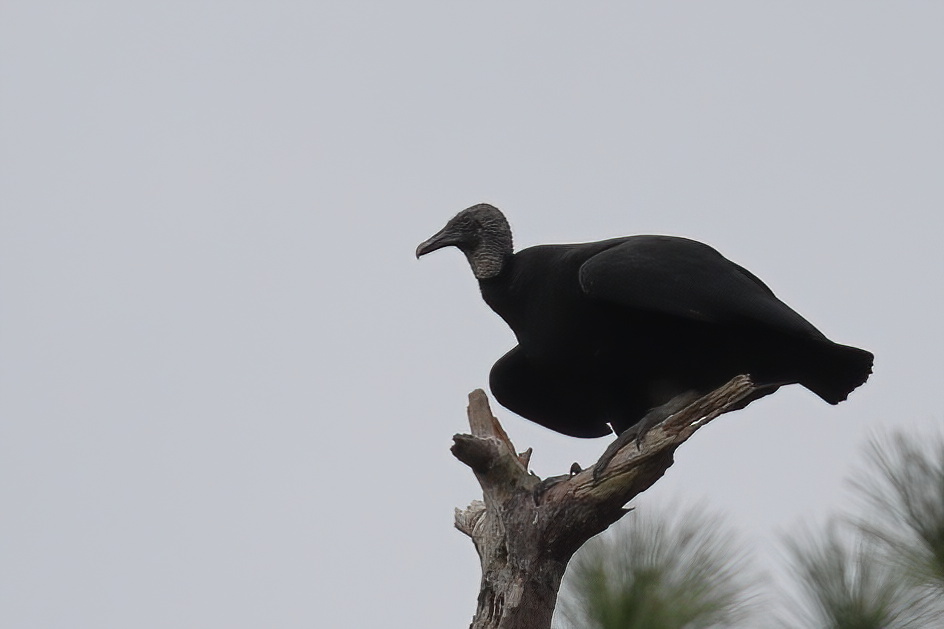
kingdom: Animalia
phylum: Chordata
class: Aves
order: Accipitriformes
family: Cathartidae
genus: Coragyps
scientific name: Coragyps atratus
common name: Black vulture
